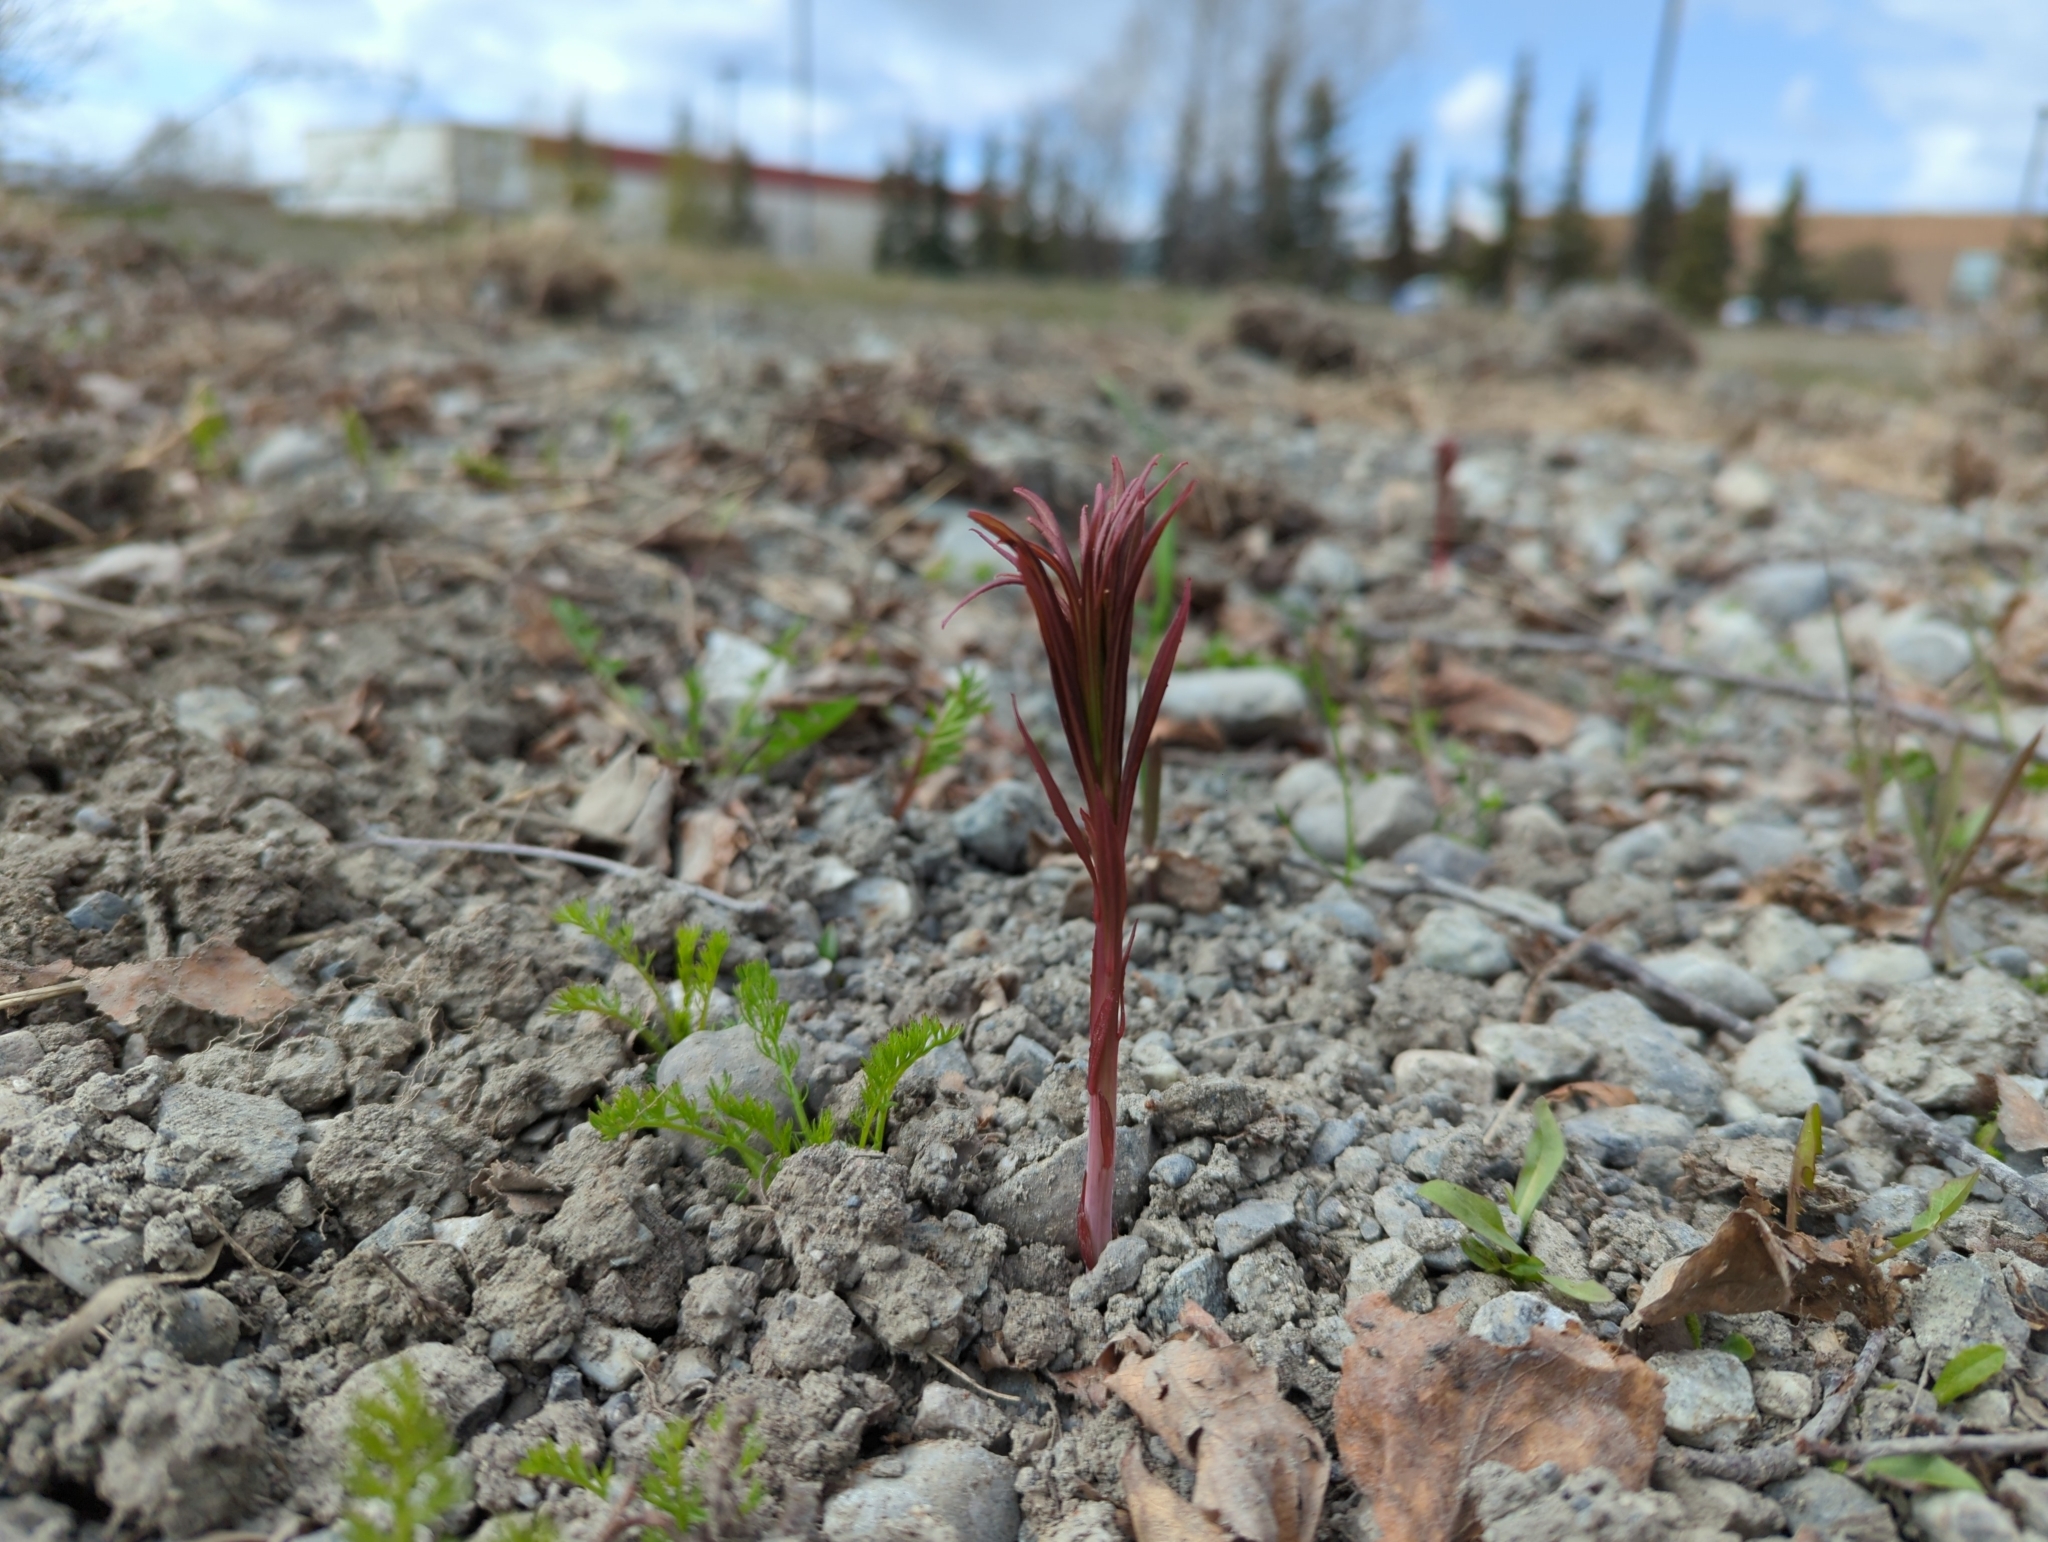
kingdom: Plantae
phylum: Tracheophyta
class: Magnoliopsida
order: Myrtales
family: Onagraceae
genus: Chamaenerion
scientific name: Chamaenerion angustifolium
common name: Fireweed
